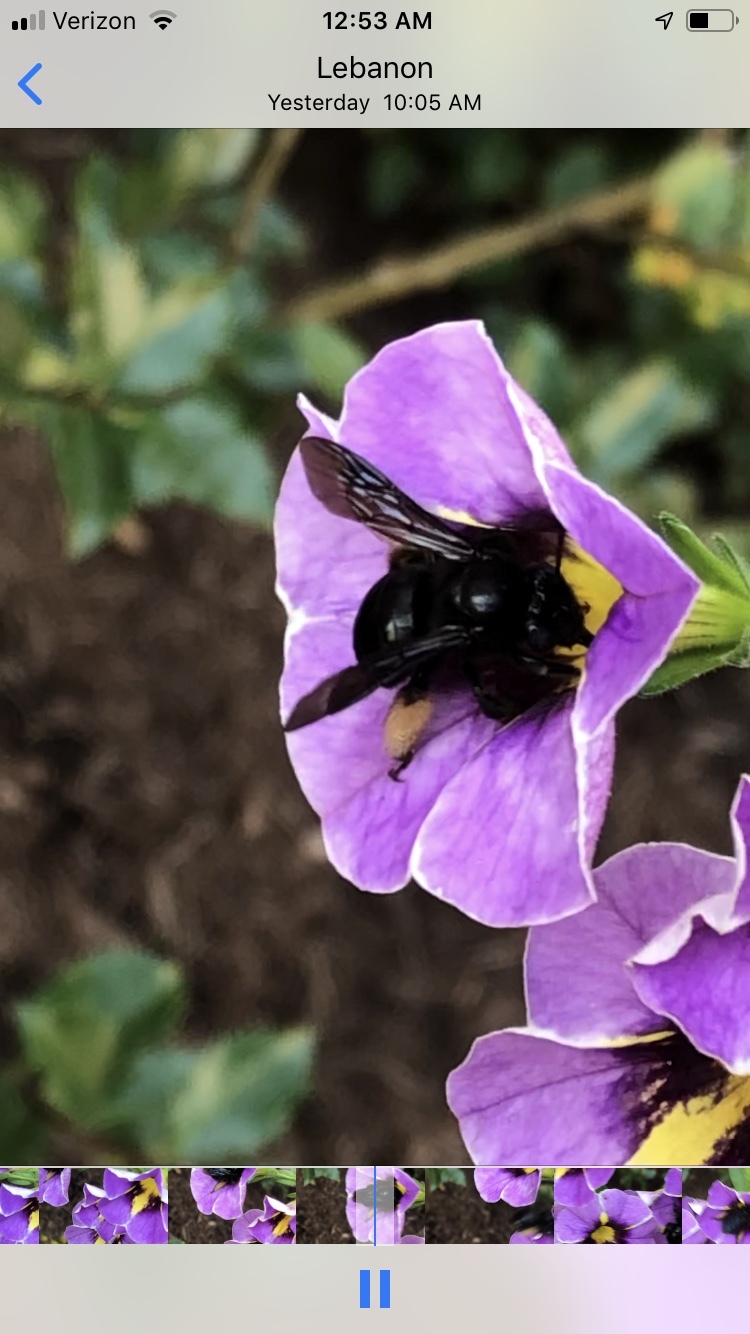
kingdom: Animalia
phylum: Arthropoda
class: Insecta
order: Hymenoptera
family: Apidae
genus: Melissodes
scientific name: Melissodes bimaculatus
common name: Two-spotted long-horned bee
